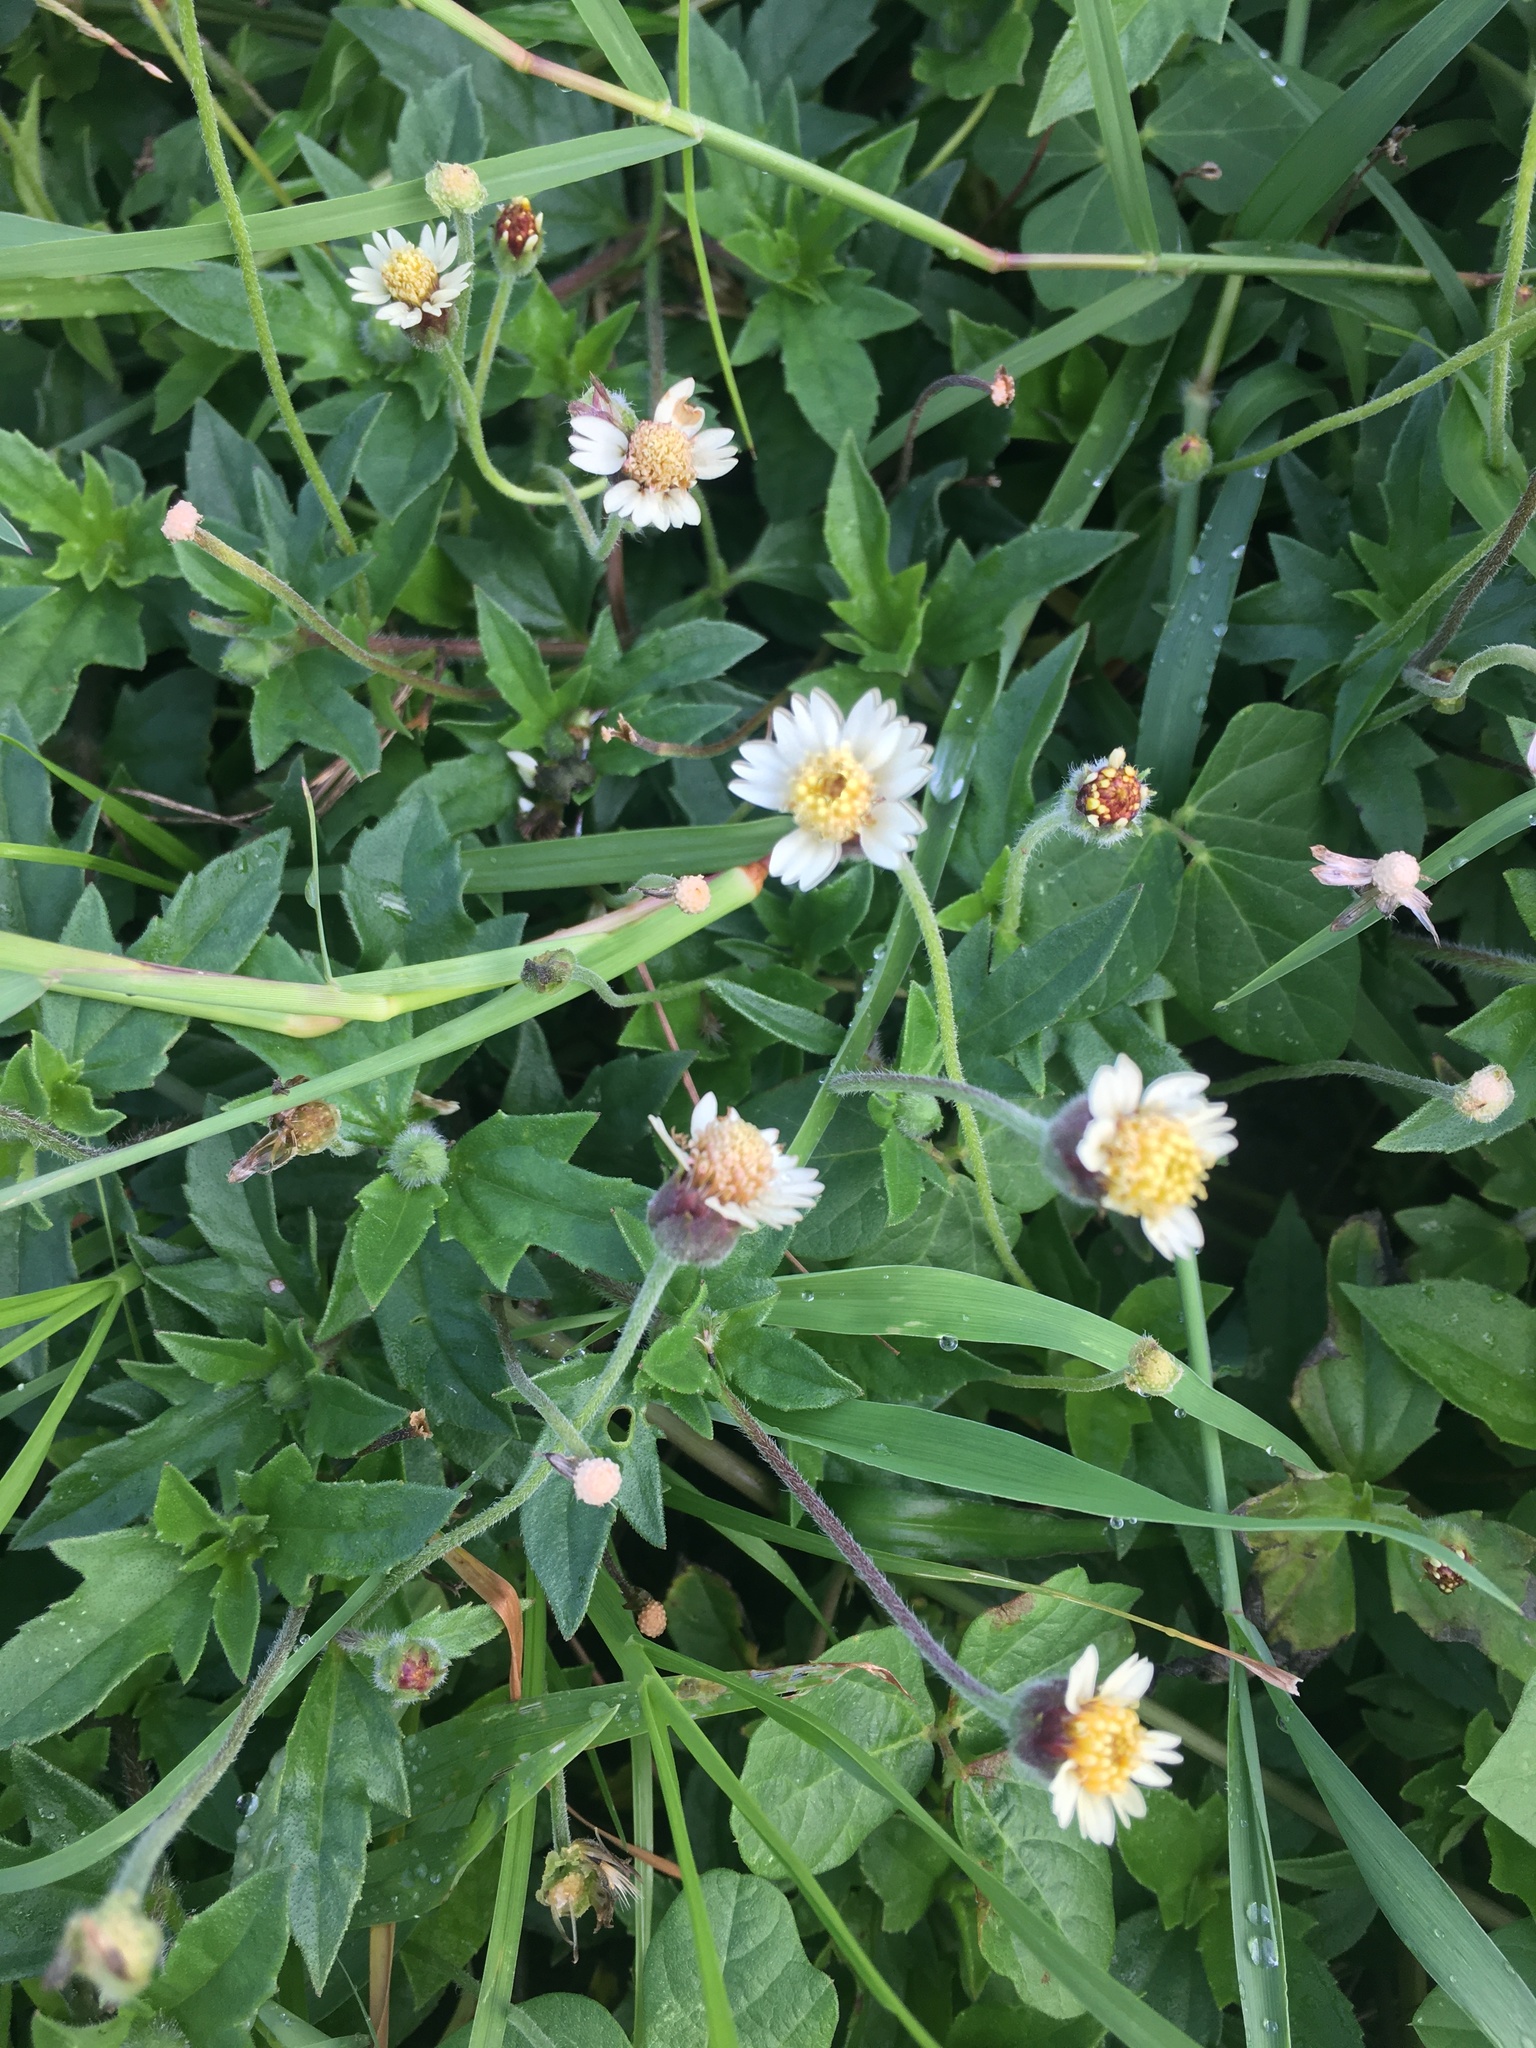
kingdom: Plantae
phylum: Tracheophyta
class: Magnoliopsida
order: Asterales
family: Asteraceae
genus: Tridax
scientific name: Tridax procumbens
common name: Coatbuttons
